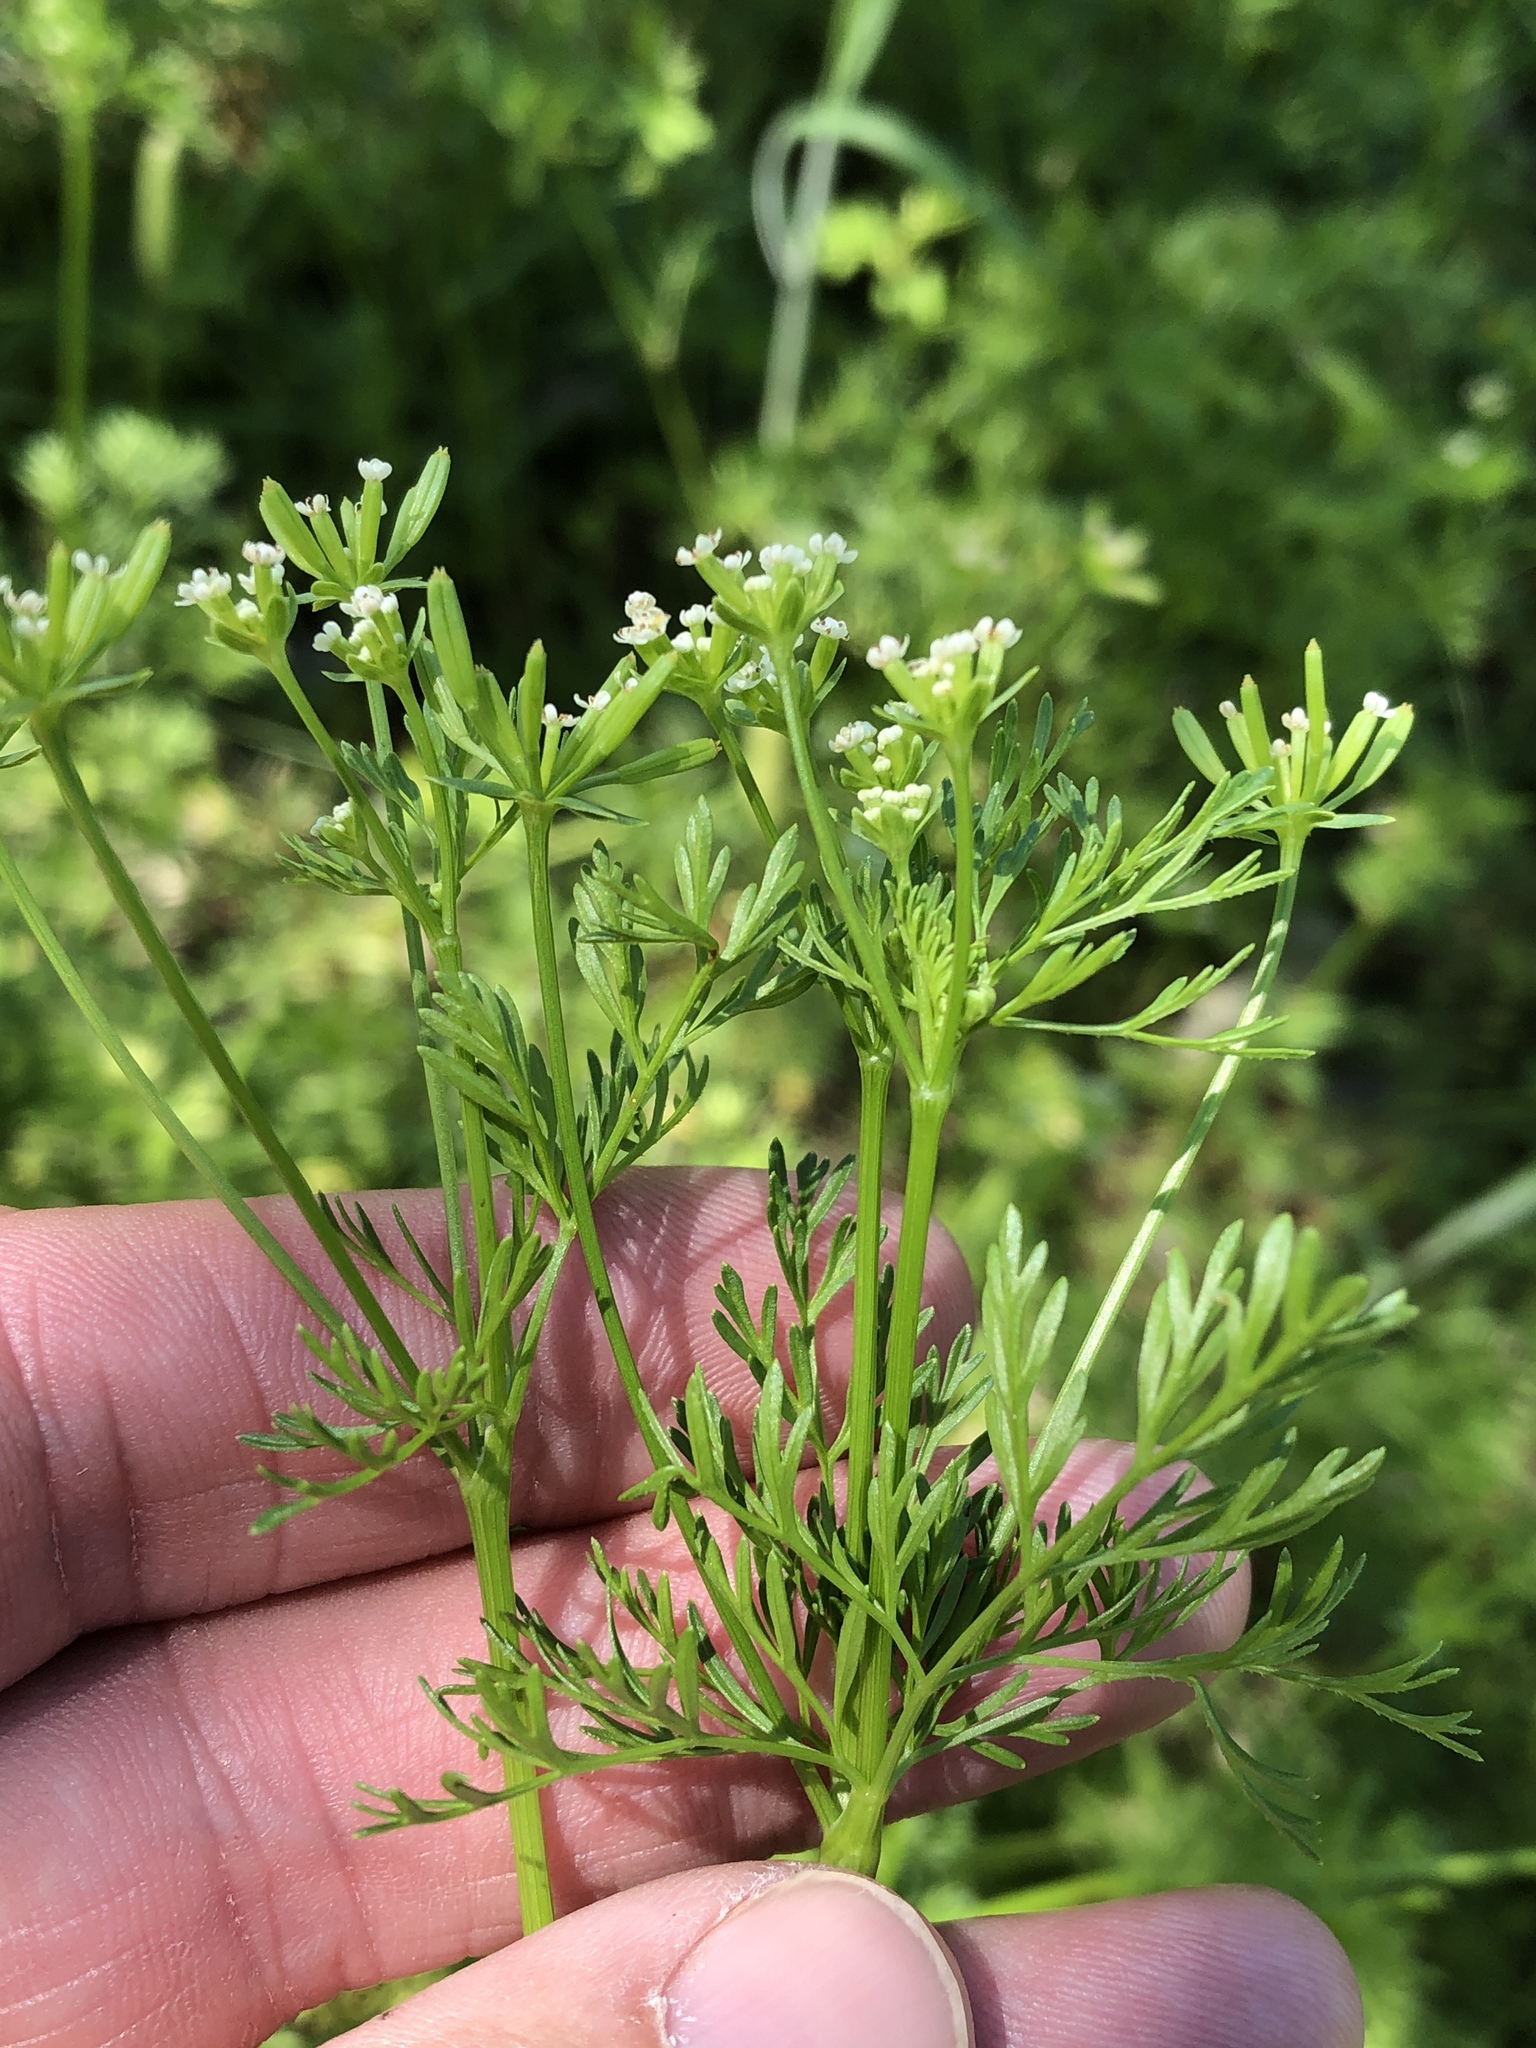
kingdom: Plantae
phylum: Tracheophyta
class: Magnoliopsida
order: Apiales
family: Apiaceae
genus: Chaerophyllum
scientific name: Chaerophyllum tainturieri
